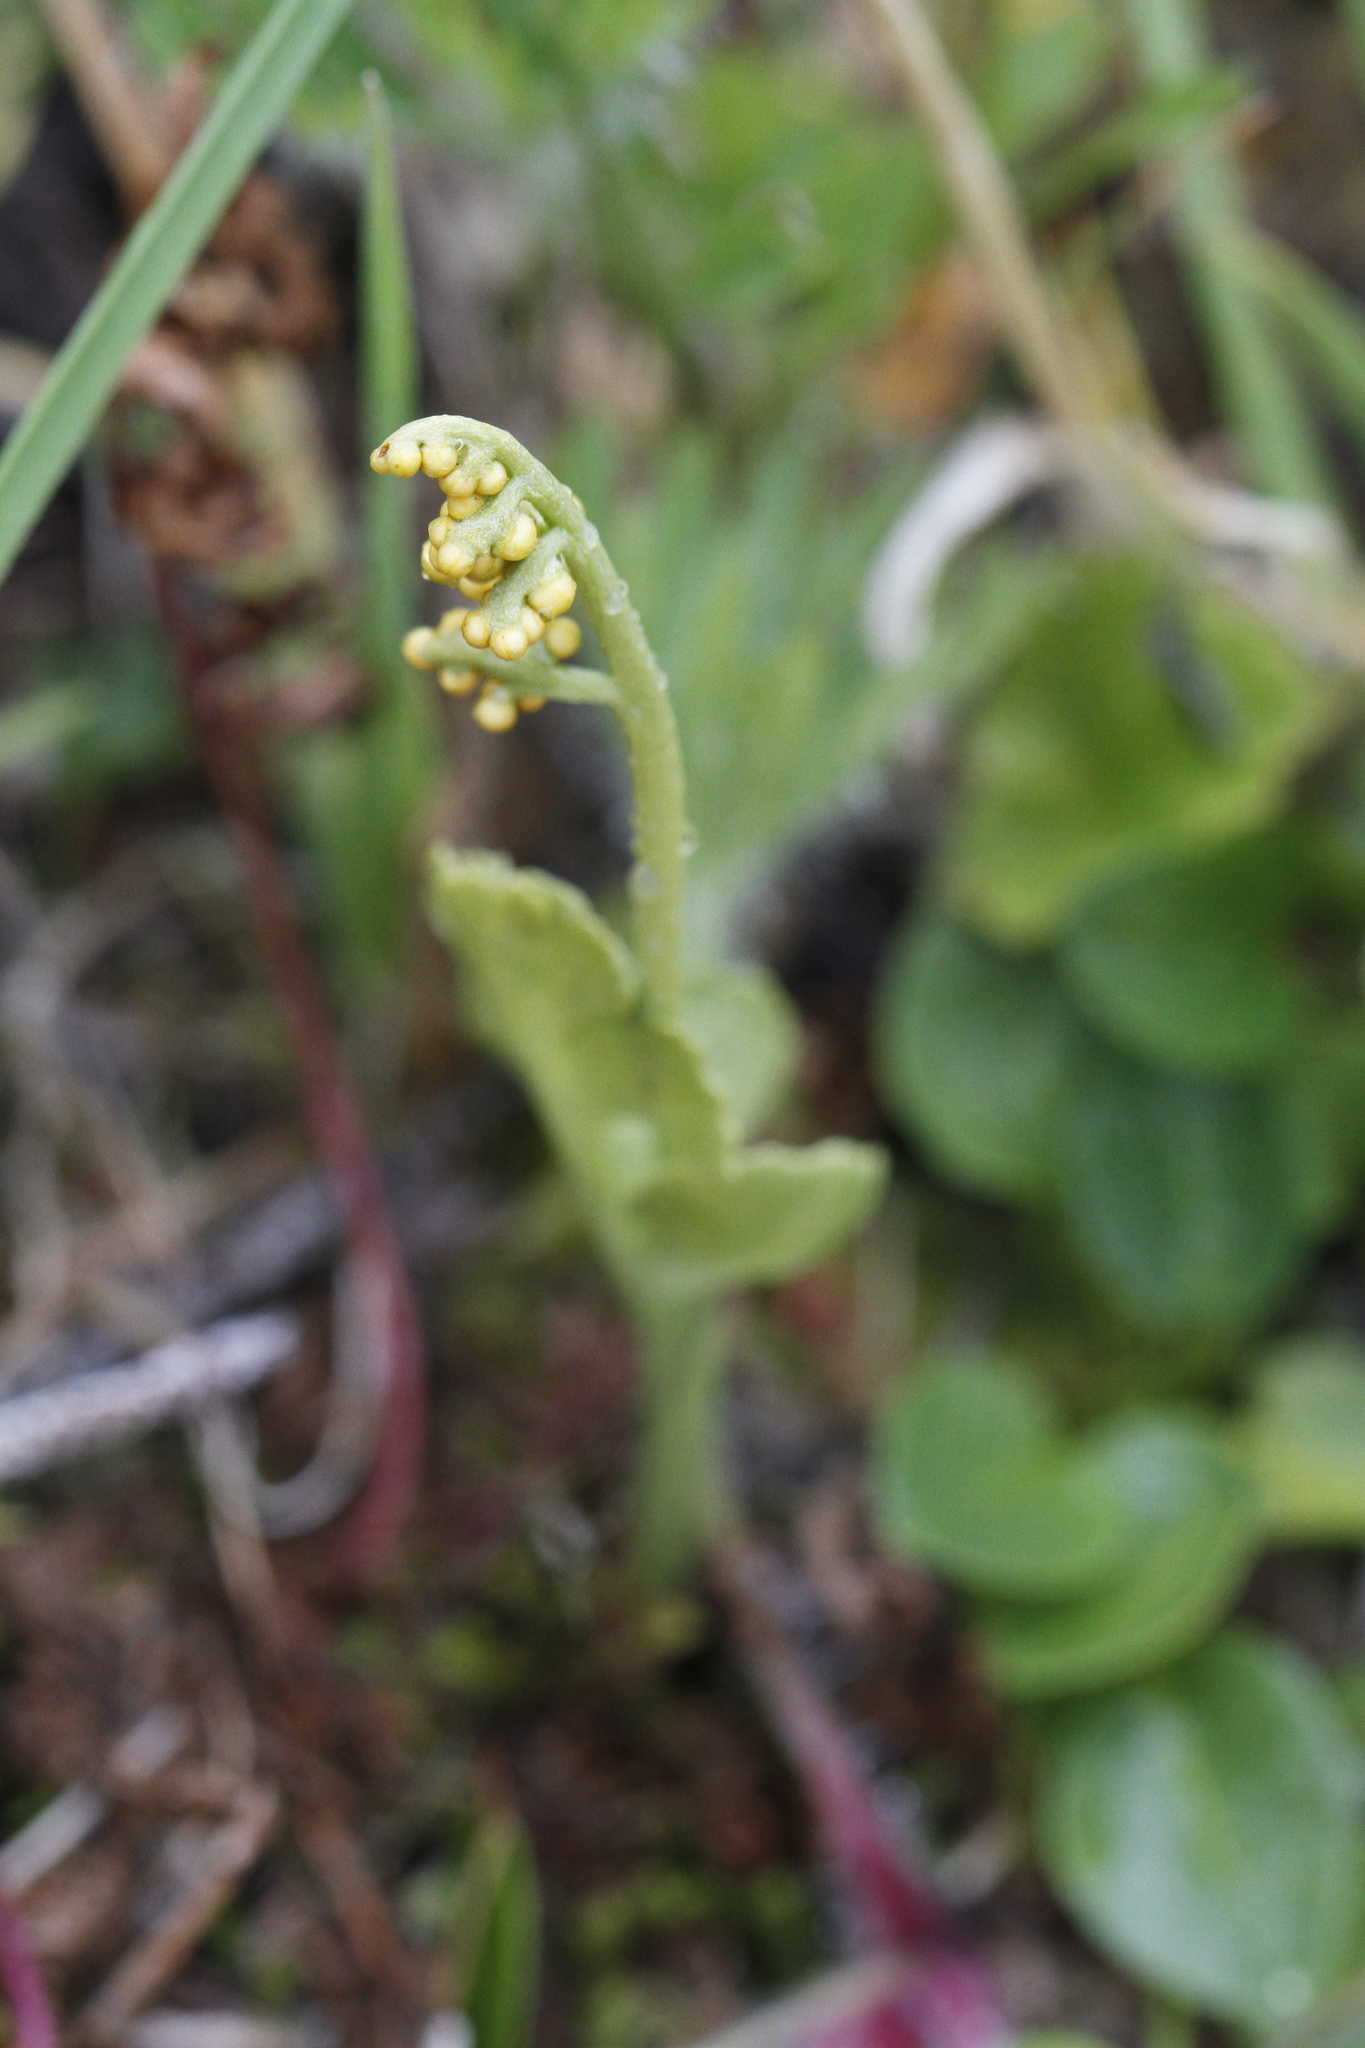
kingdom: Plantae
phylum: Tracheophyta
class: Polypodiopsida
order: Ophioglossales
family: Ophioglossaceae
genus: Botrychium
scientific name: Botrychium neolunaria
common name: New world moonwort
